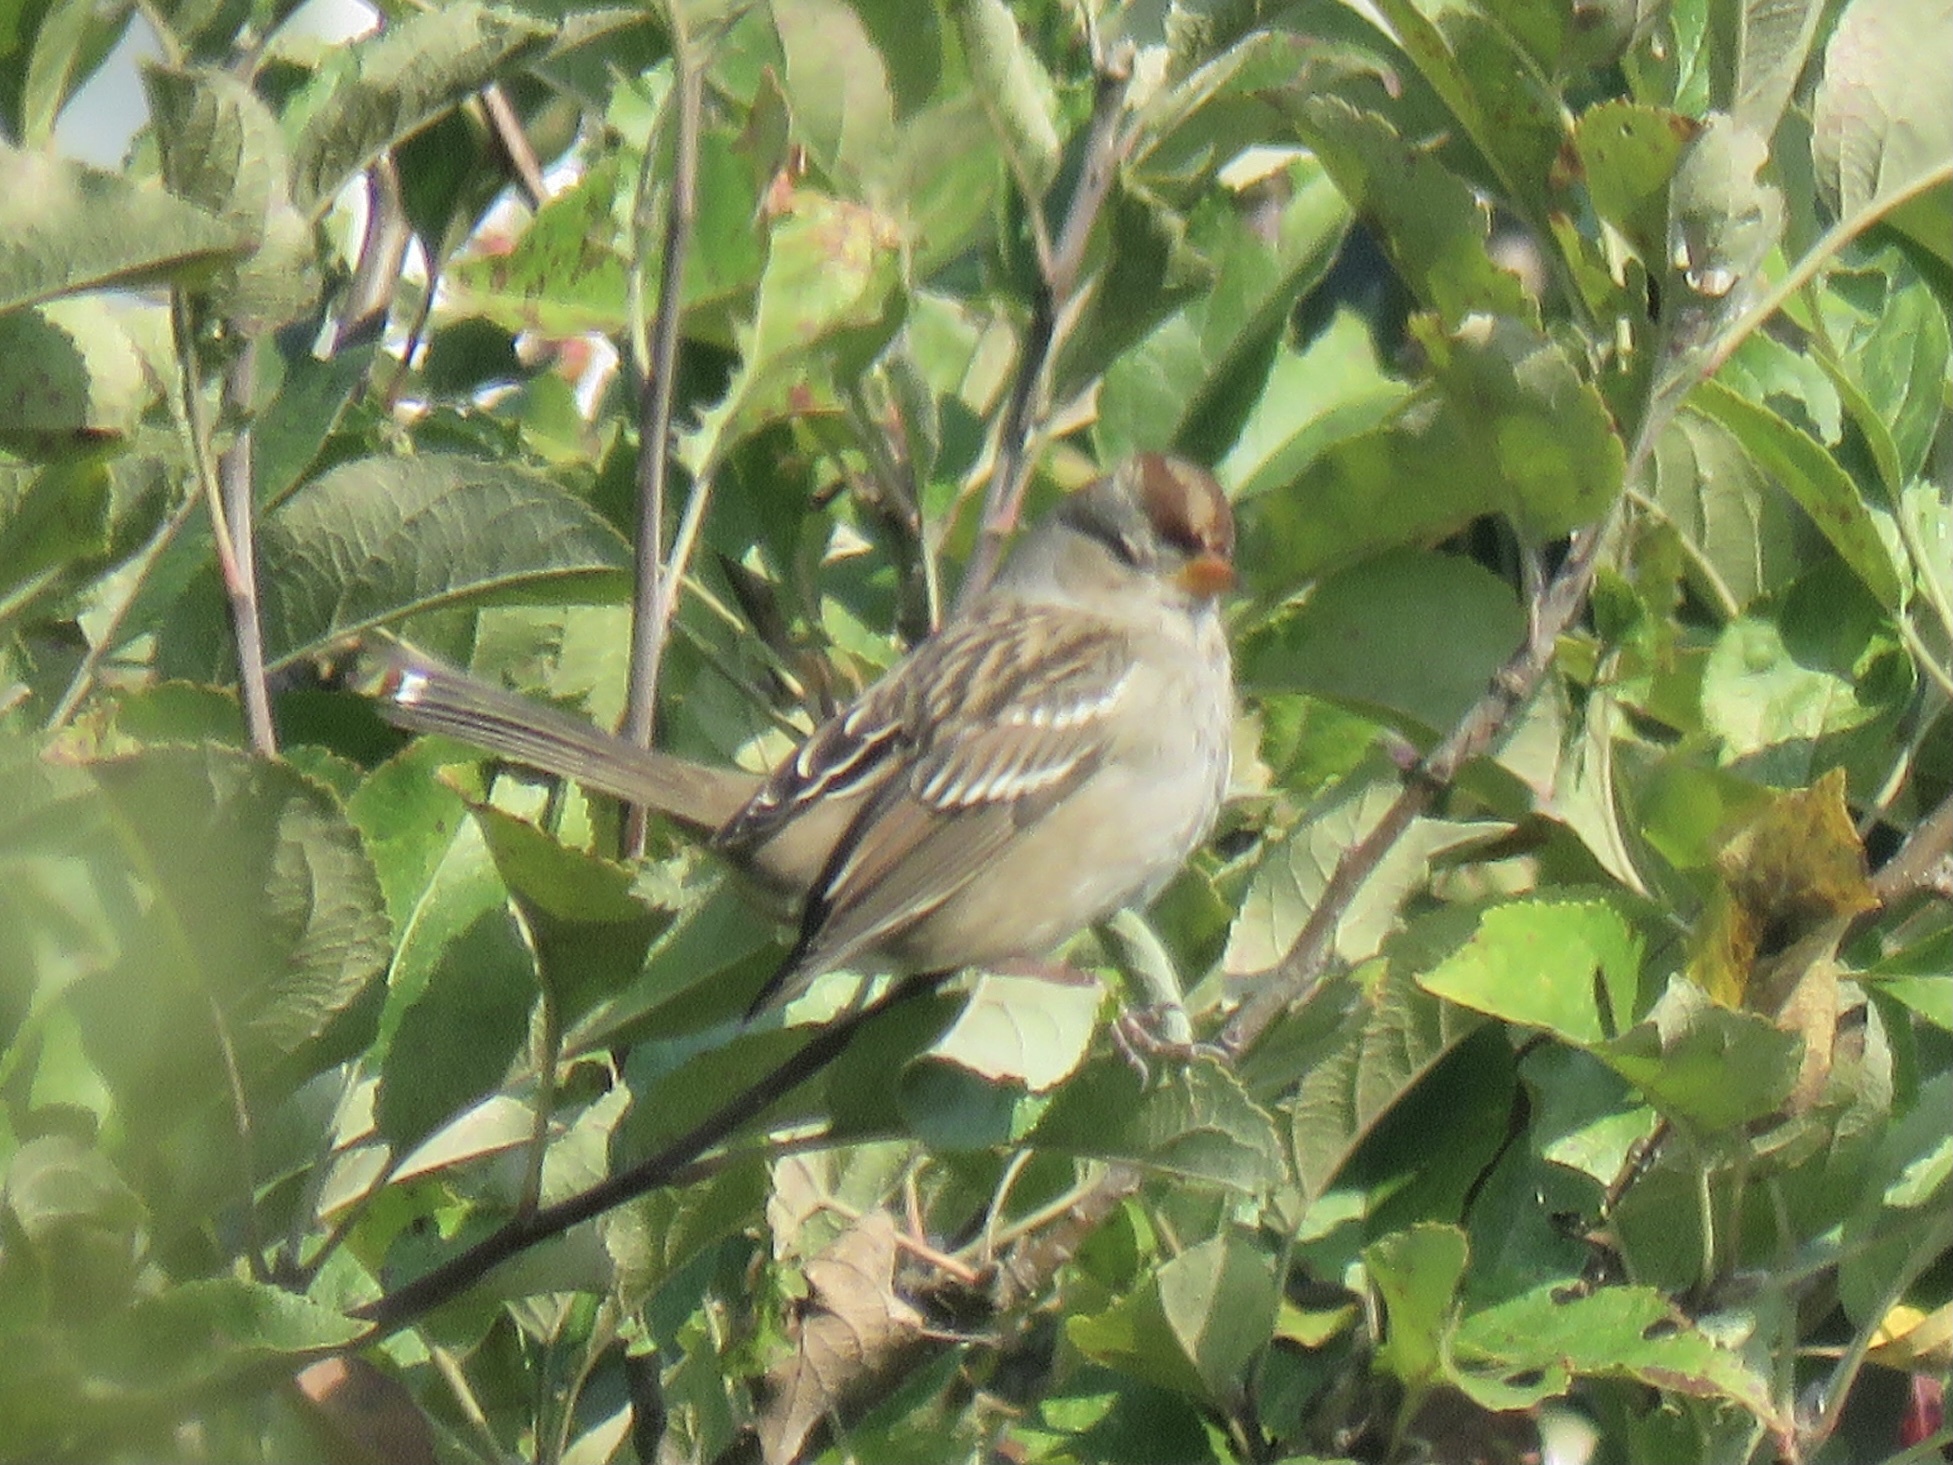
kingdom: Animalia
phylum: Chordata
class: Aves
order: Passeriformes
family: Passerellidae
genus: Zonotrichia
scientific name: Zonotrichia leucophrys
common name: White-crowned sparrow
